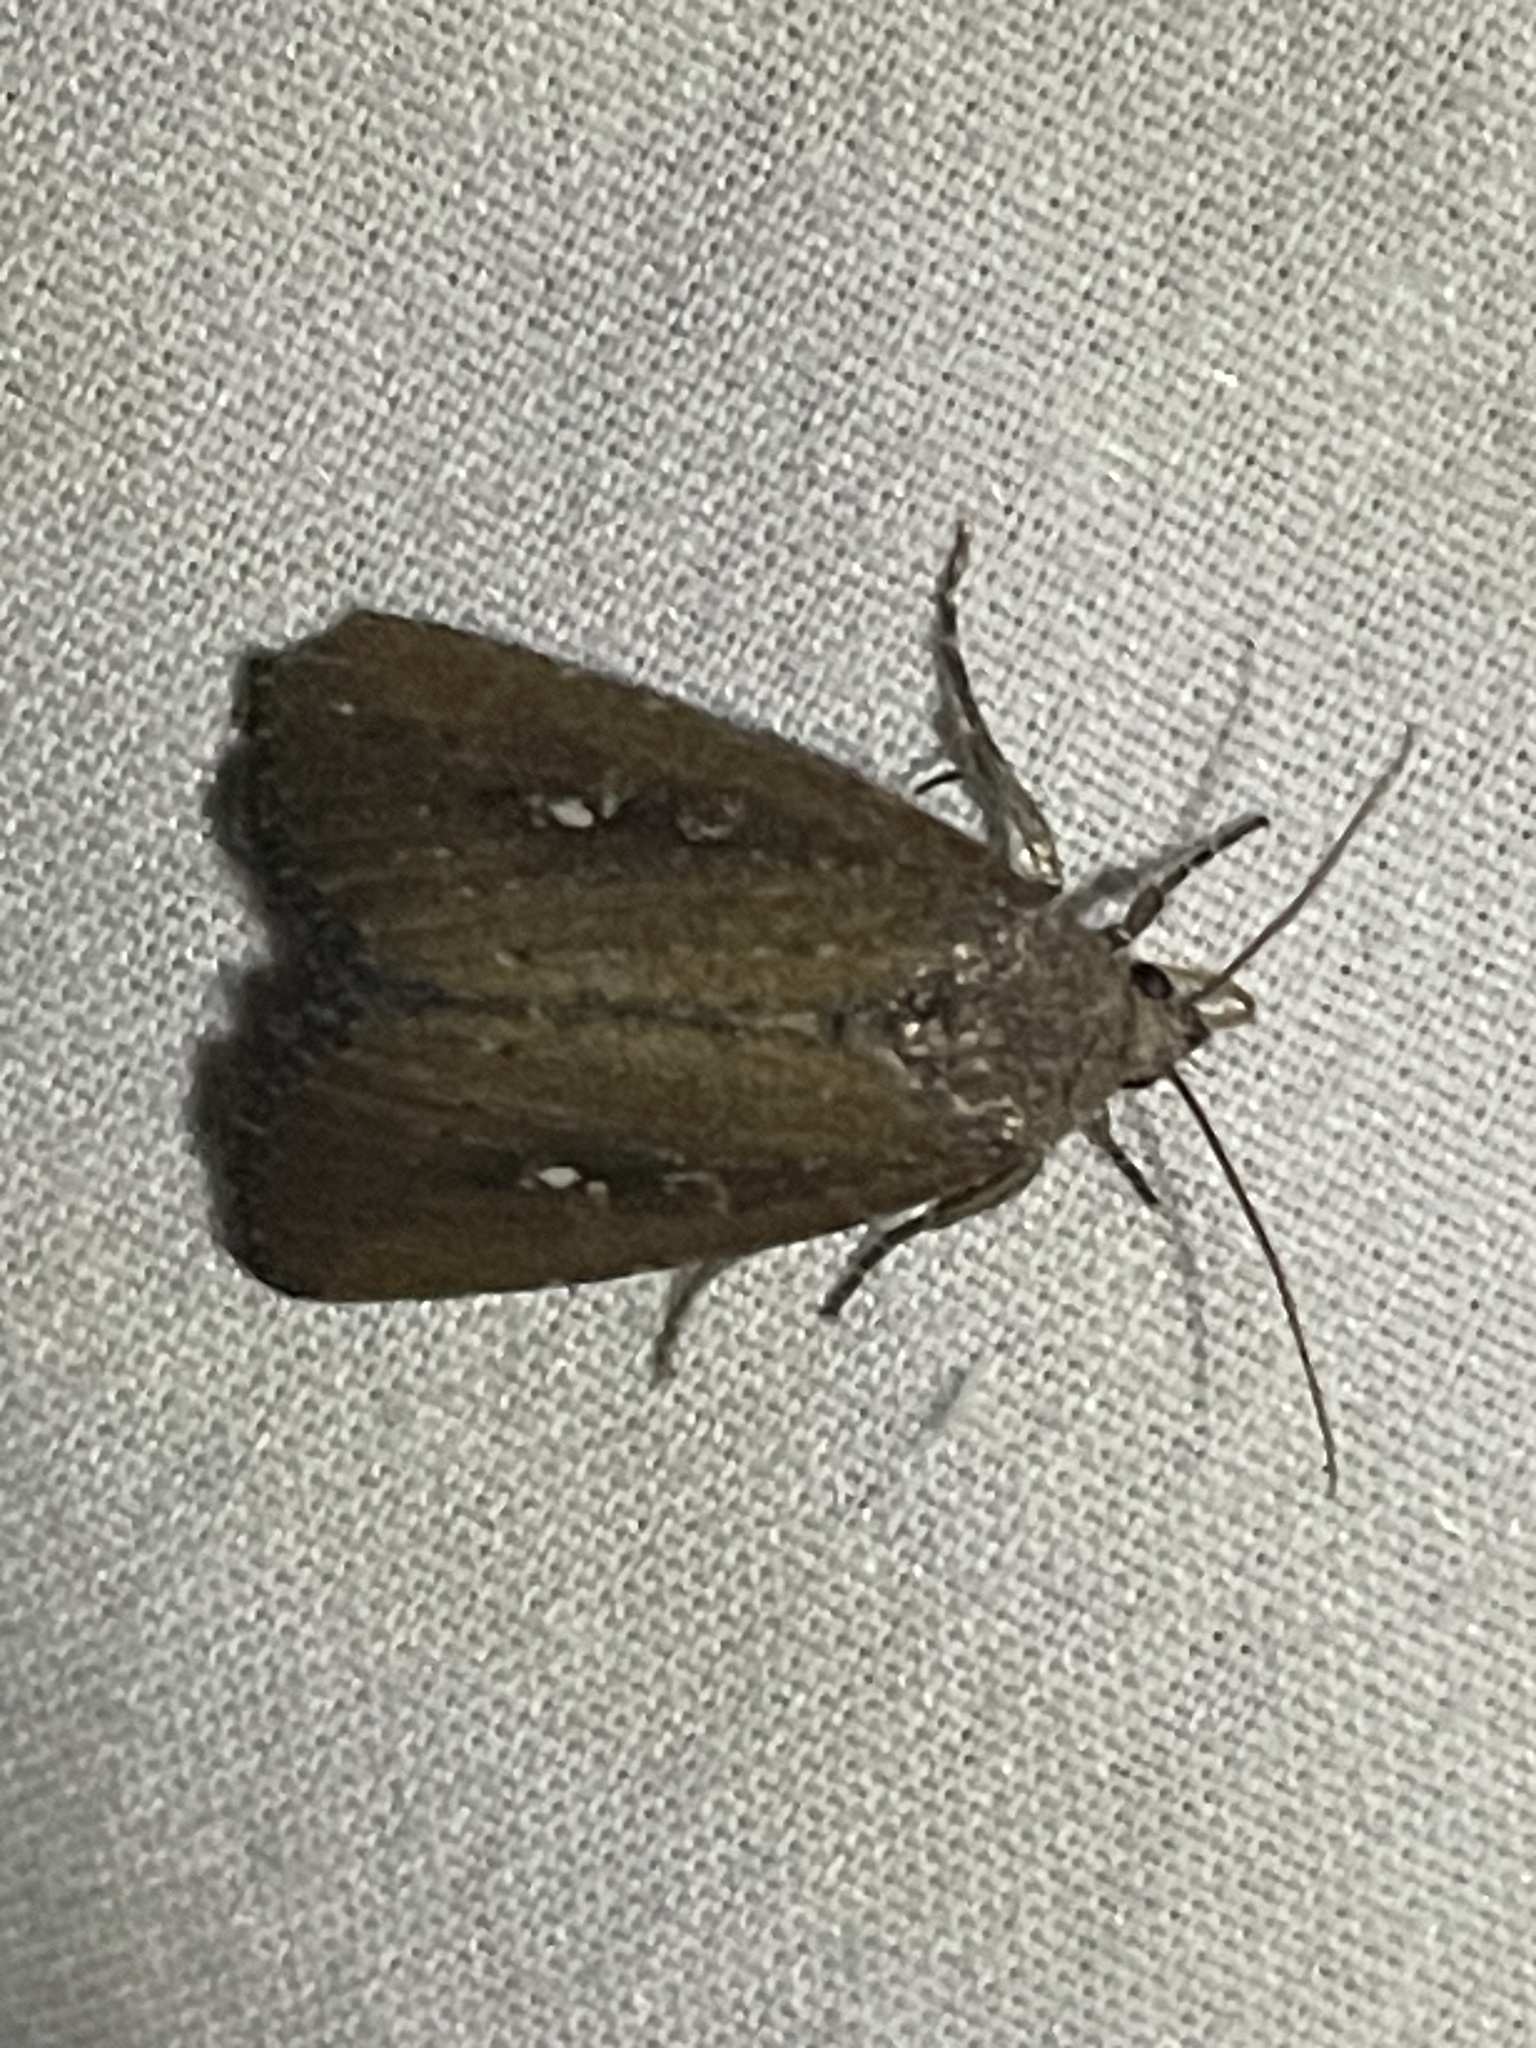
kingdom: Animalia
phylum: Arthropoda
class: Insecta
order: Lepidoptera
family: Noctuidae
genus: Condica
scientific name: Condica videns
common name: White-dotted groundling
